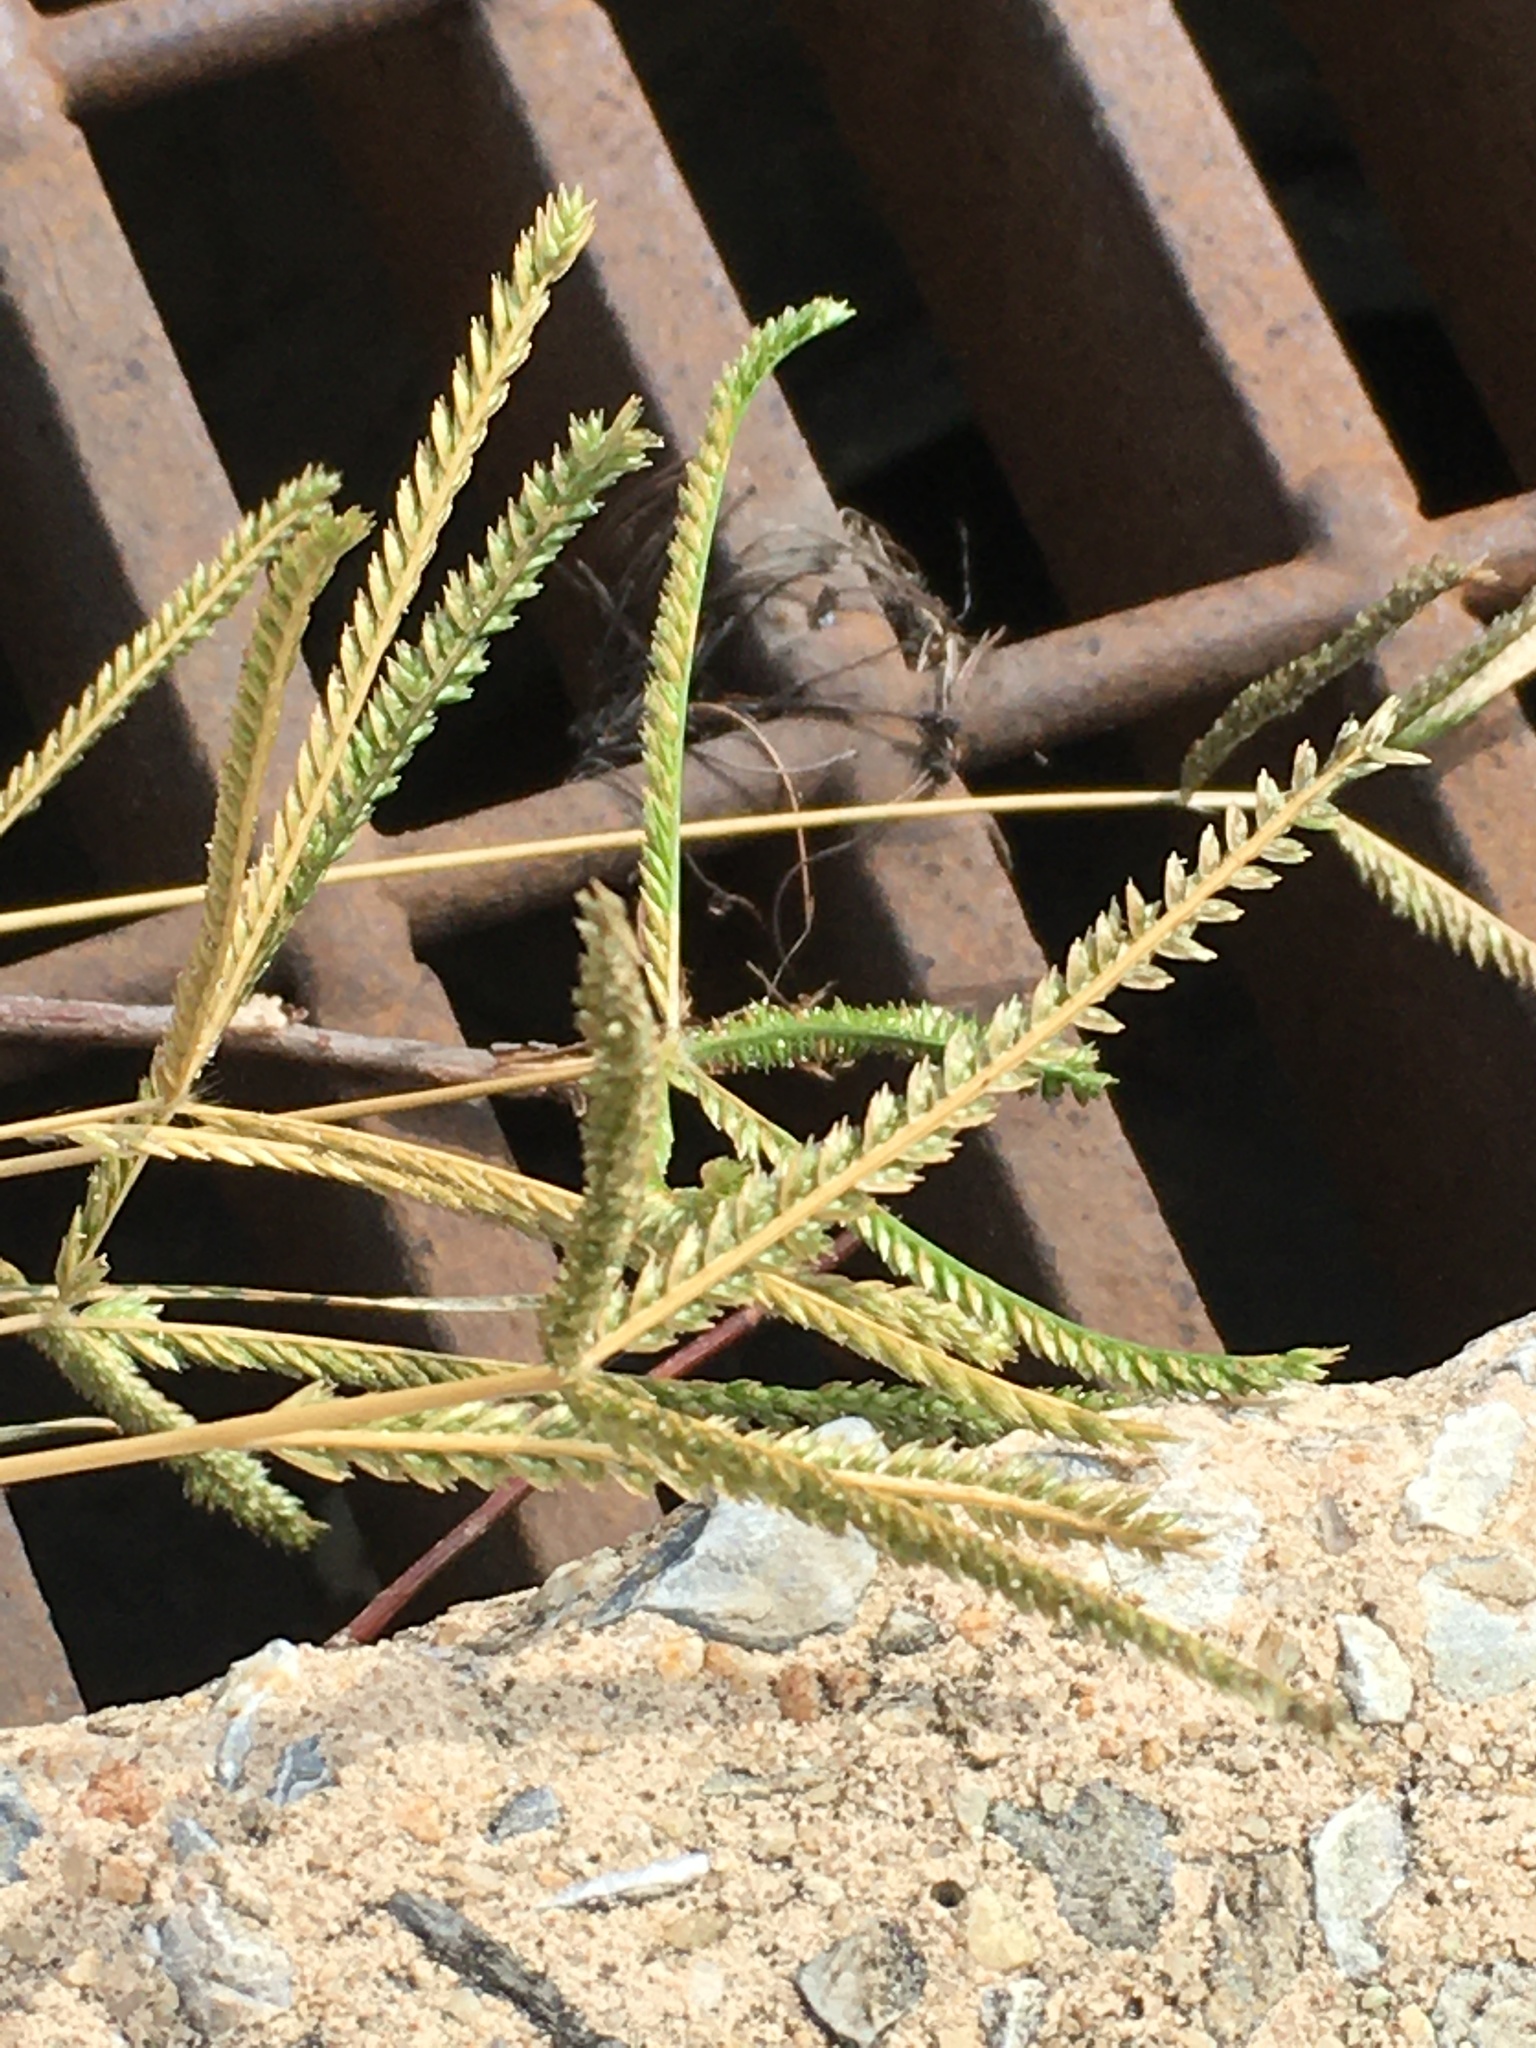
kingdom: Plantae
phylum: Tracheophyta
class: Liliopsida
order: Poales
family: Poaceae
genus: Eleusine
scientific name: Eleusine indica
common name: Yard-grass
